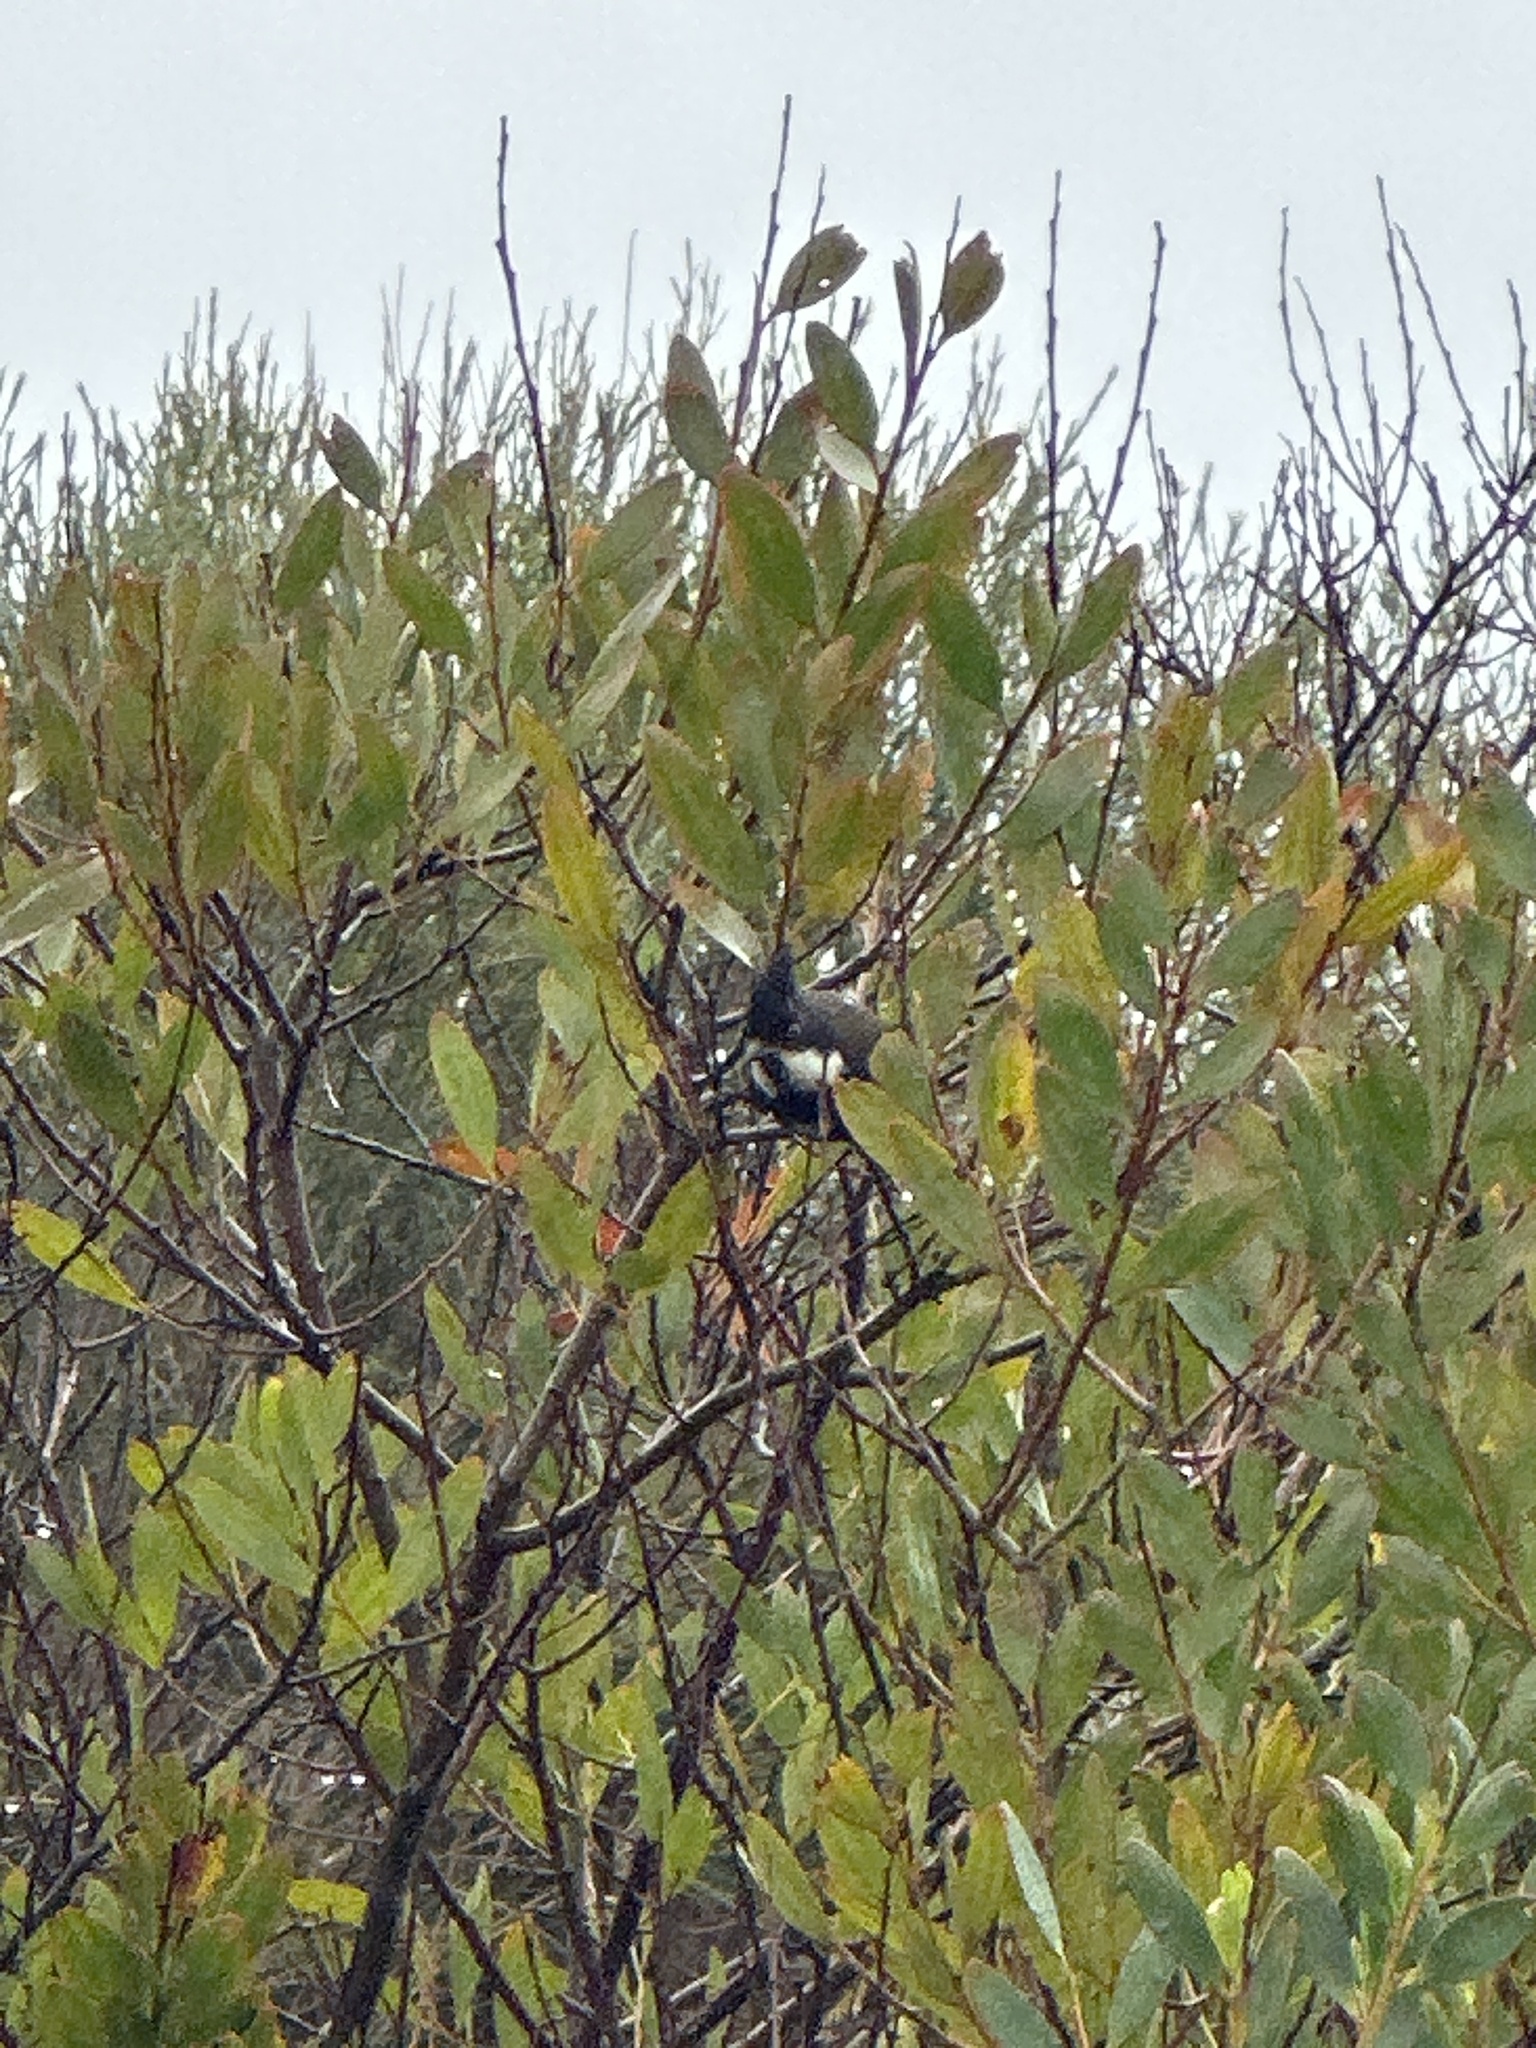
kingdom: Animalia
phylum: Chordata
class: Aves
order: Passeriformes
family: Psophodidae
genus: Psophodes
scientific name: Psophodes olivaceus
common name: Eastern whipbird
